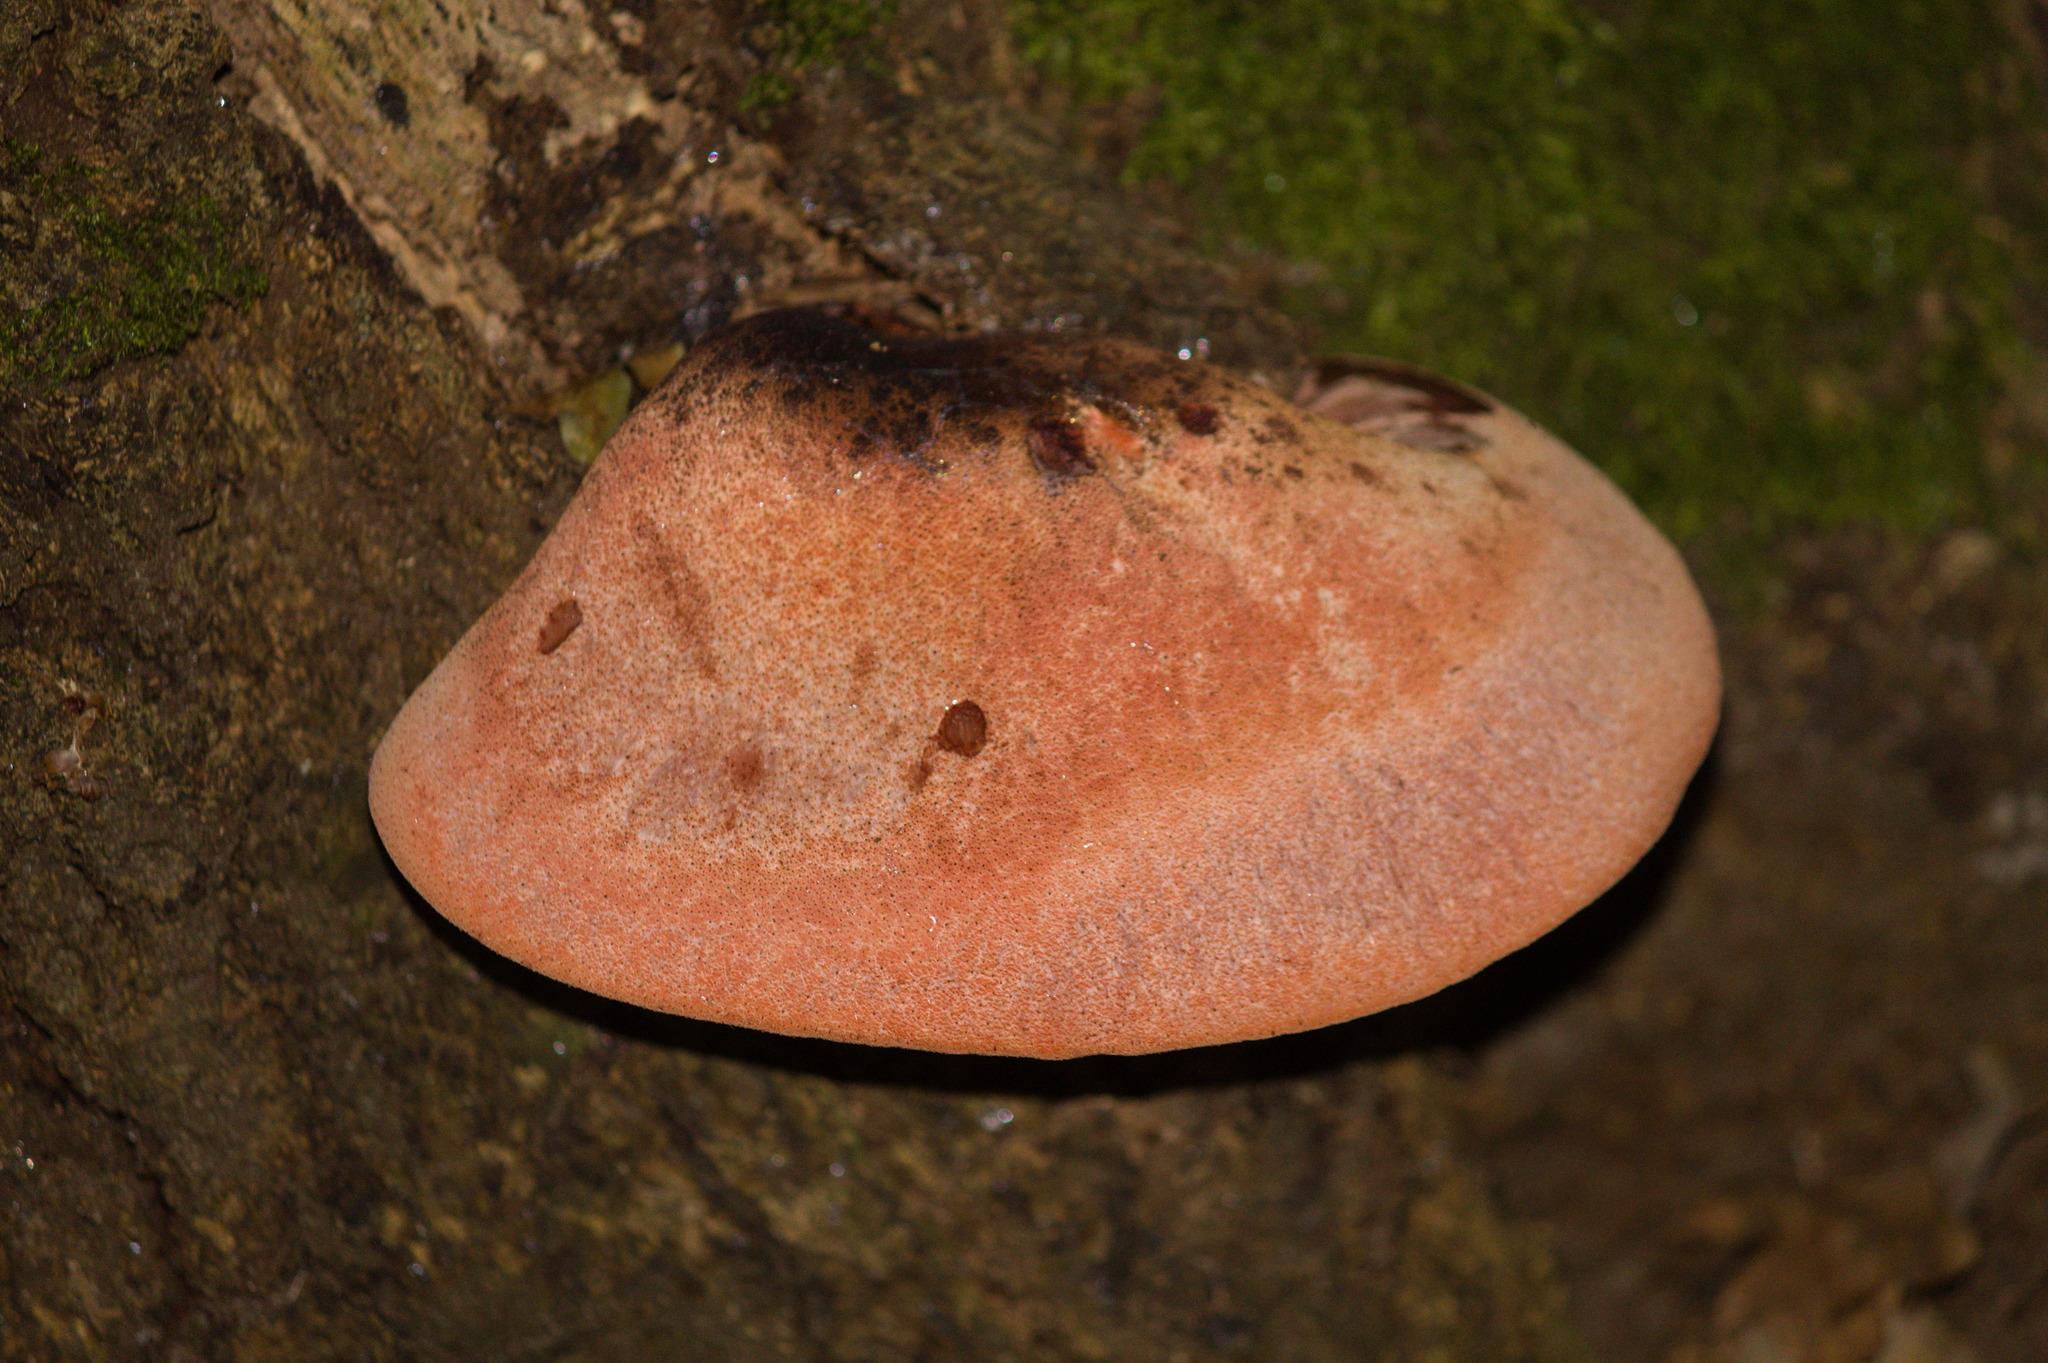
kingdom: Fungi
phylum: Basidiomycota
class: Agaricomycetes
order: Agaricales
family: Fistulinaceae
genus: Fistulina
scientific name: Fistulina hepatica
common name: Beef-steak fungus
